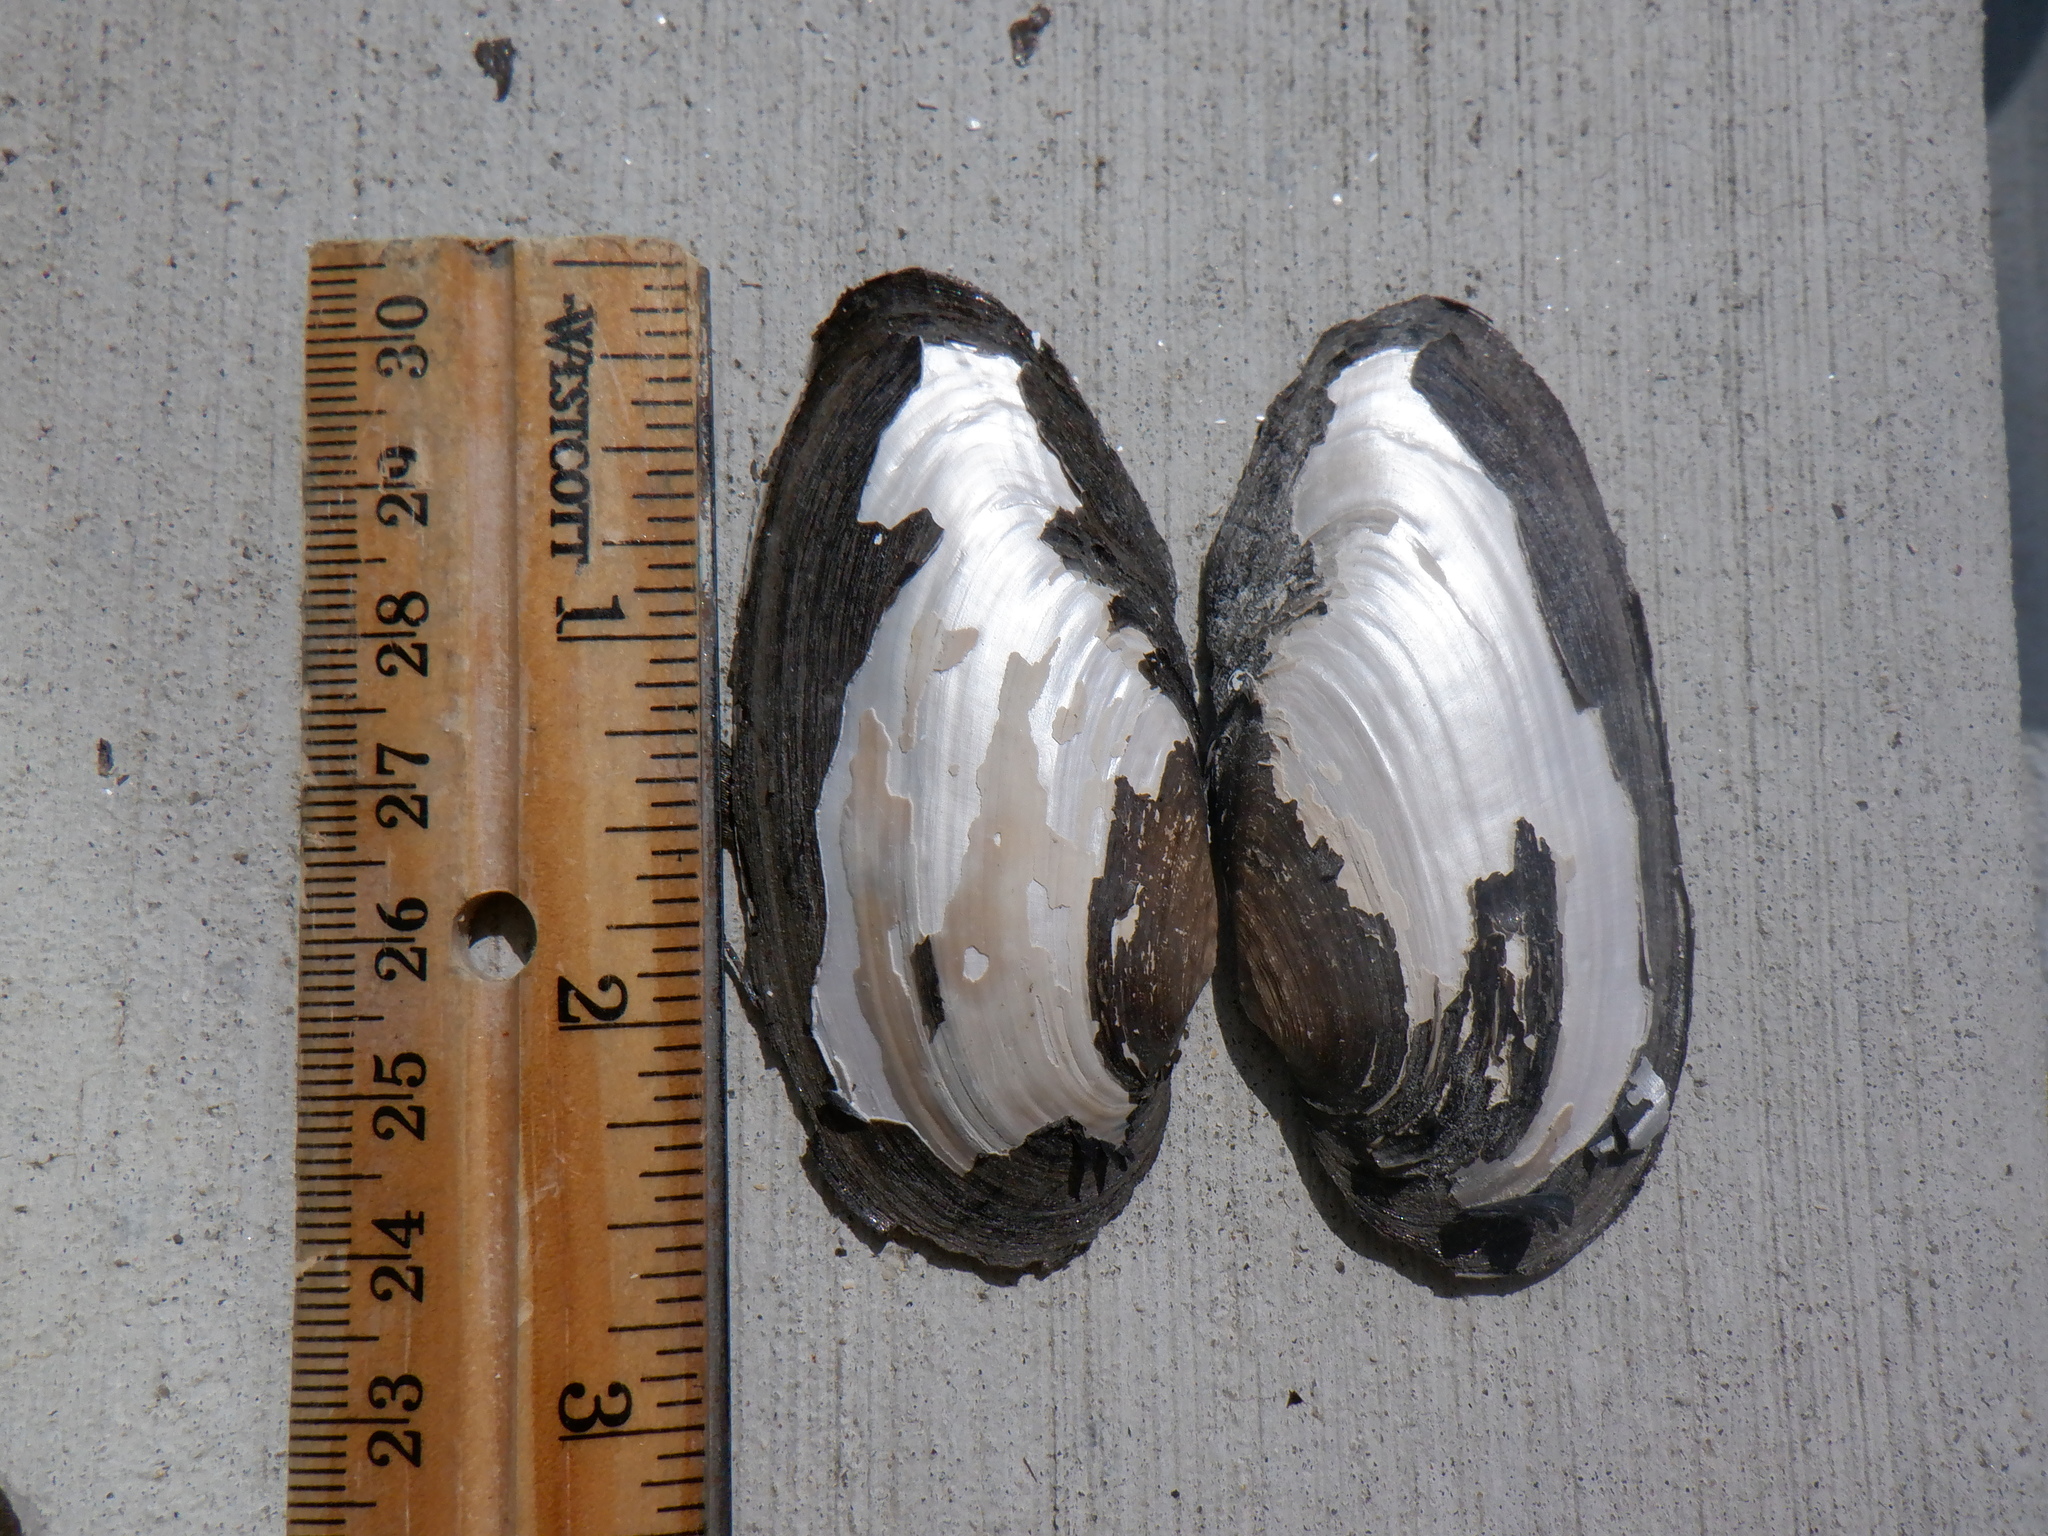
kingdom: Animalia
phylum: Mollusca
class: Bivalvia
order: Unionida
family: Unionidae
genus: Eurynia
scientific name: Eurynia dilatata
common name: Spike
